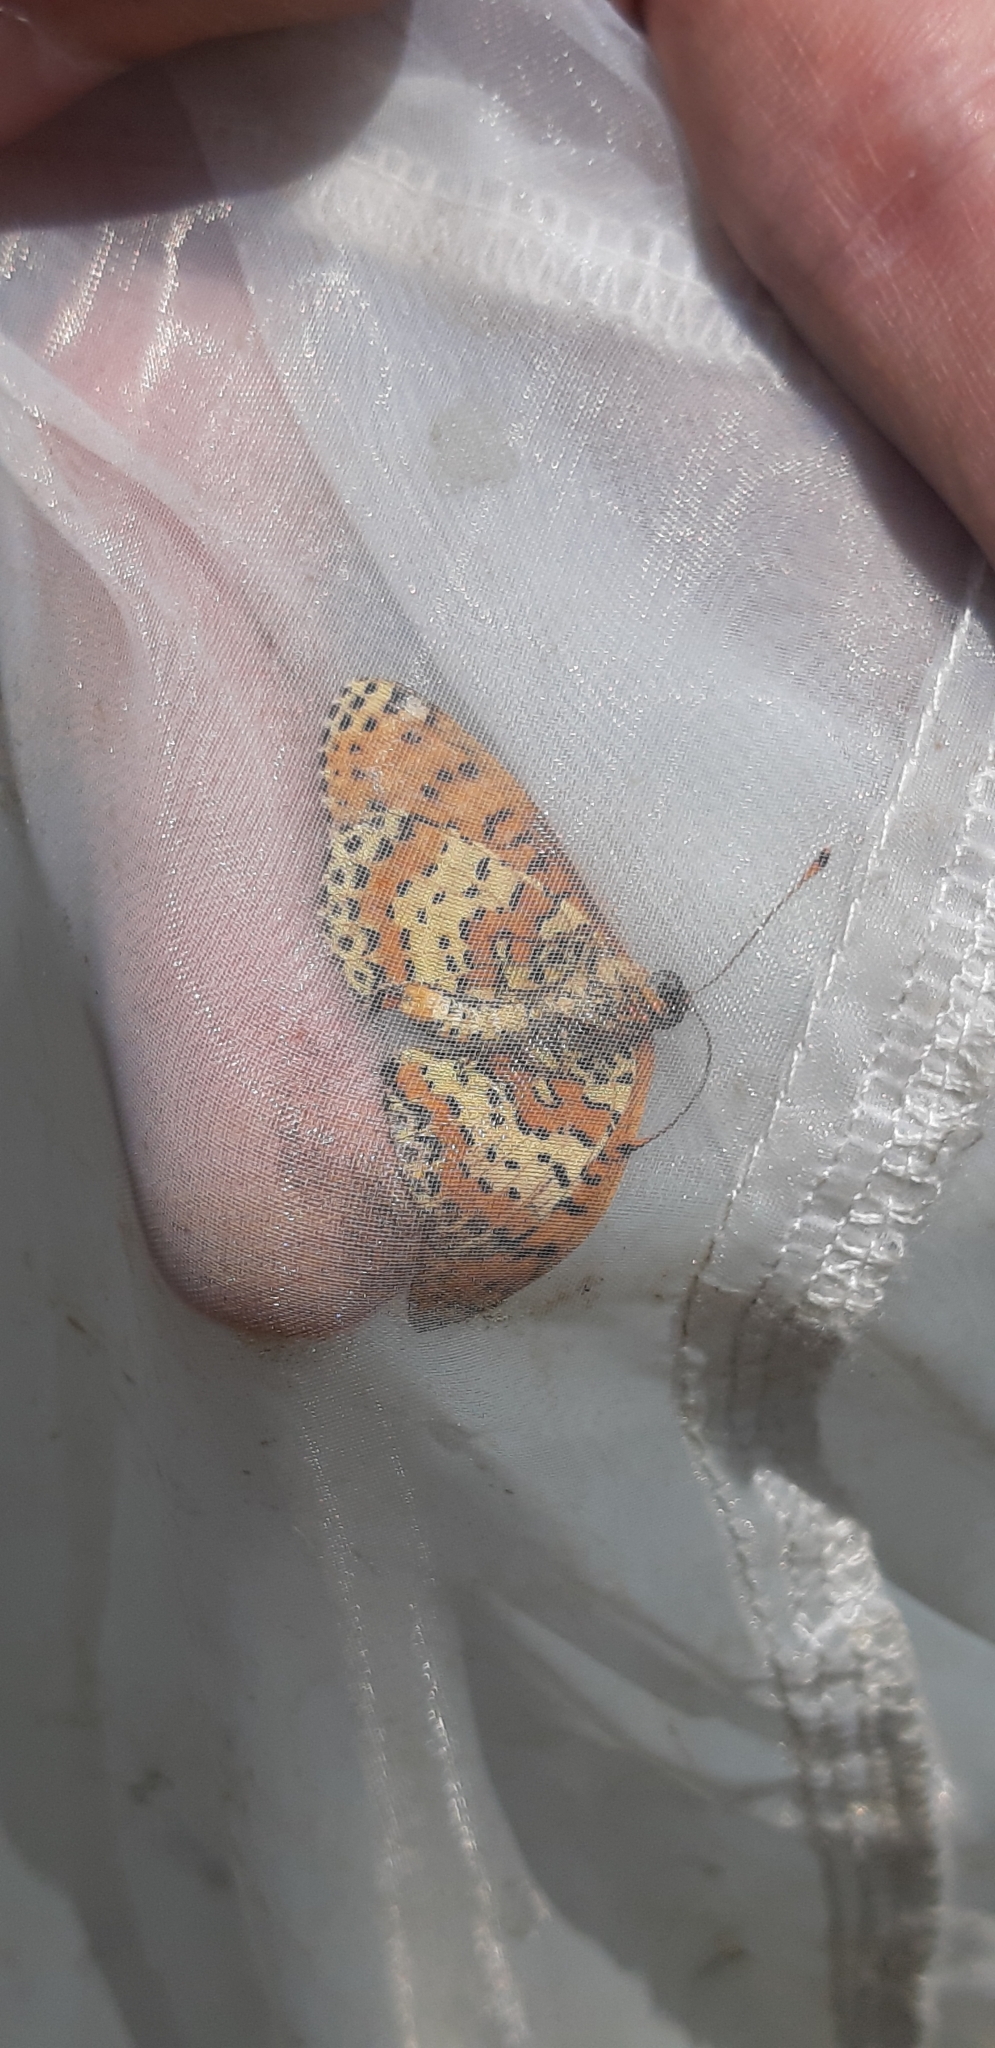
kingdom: Animalia
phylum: Arthropoda
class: Insecta
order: Lepidoptera
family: Nymphalidae
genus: Melitaea
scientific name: Melitaea didyma
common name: Spotted fritillary
